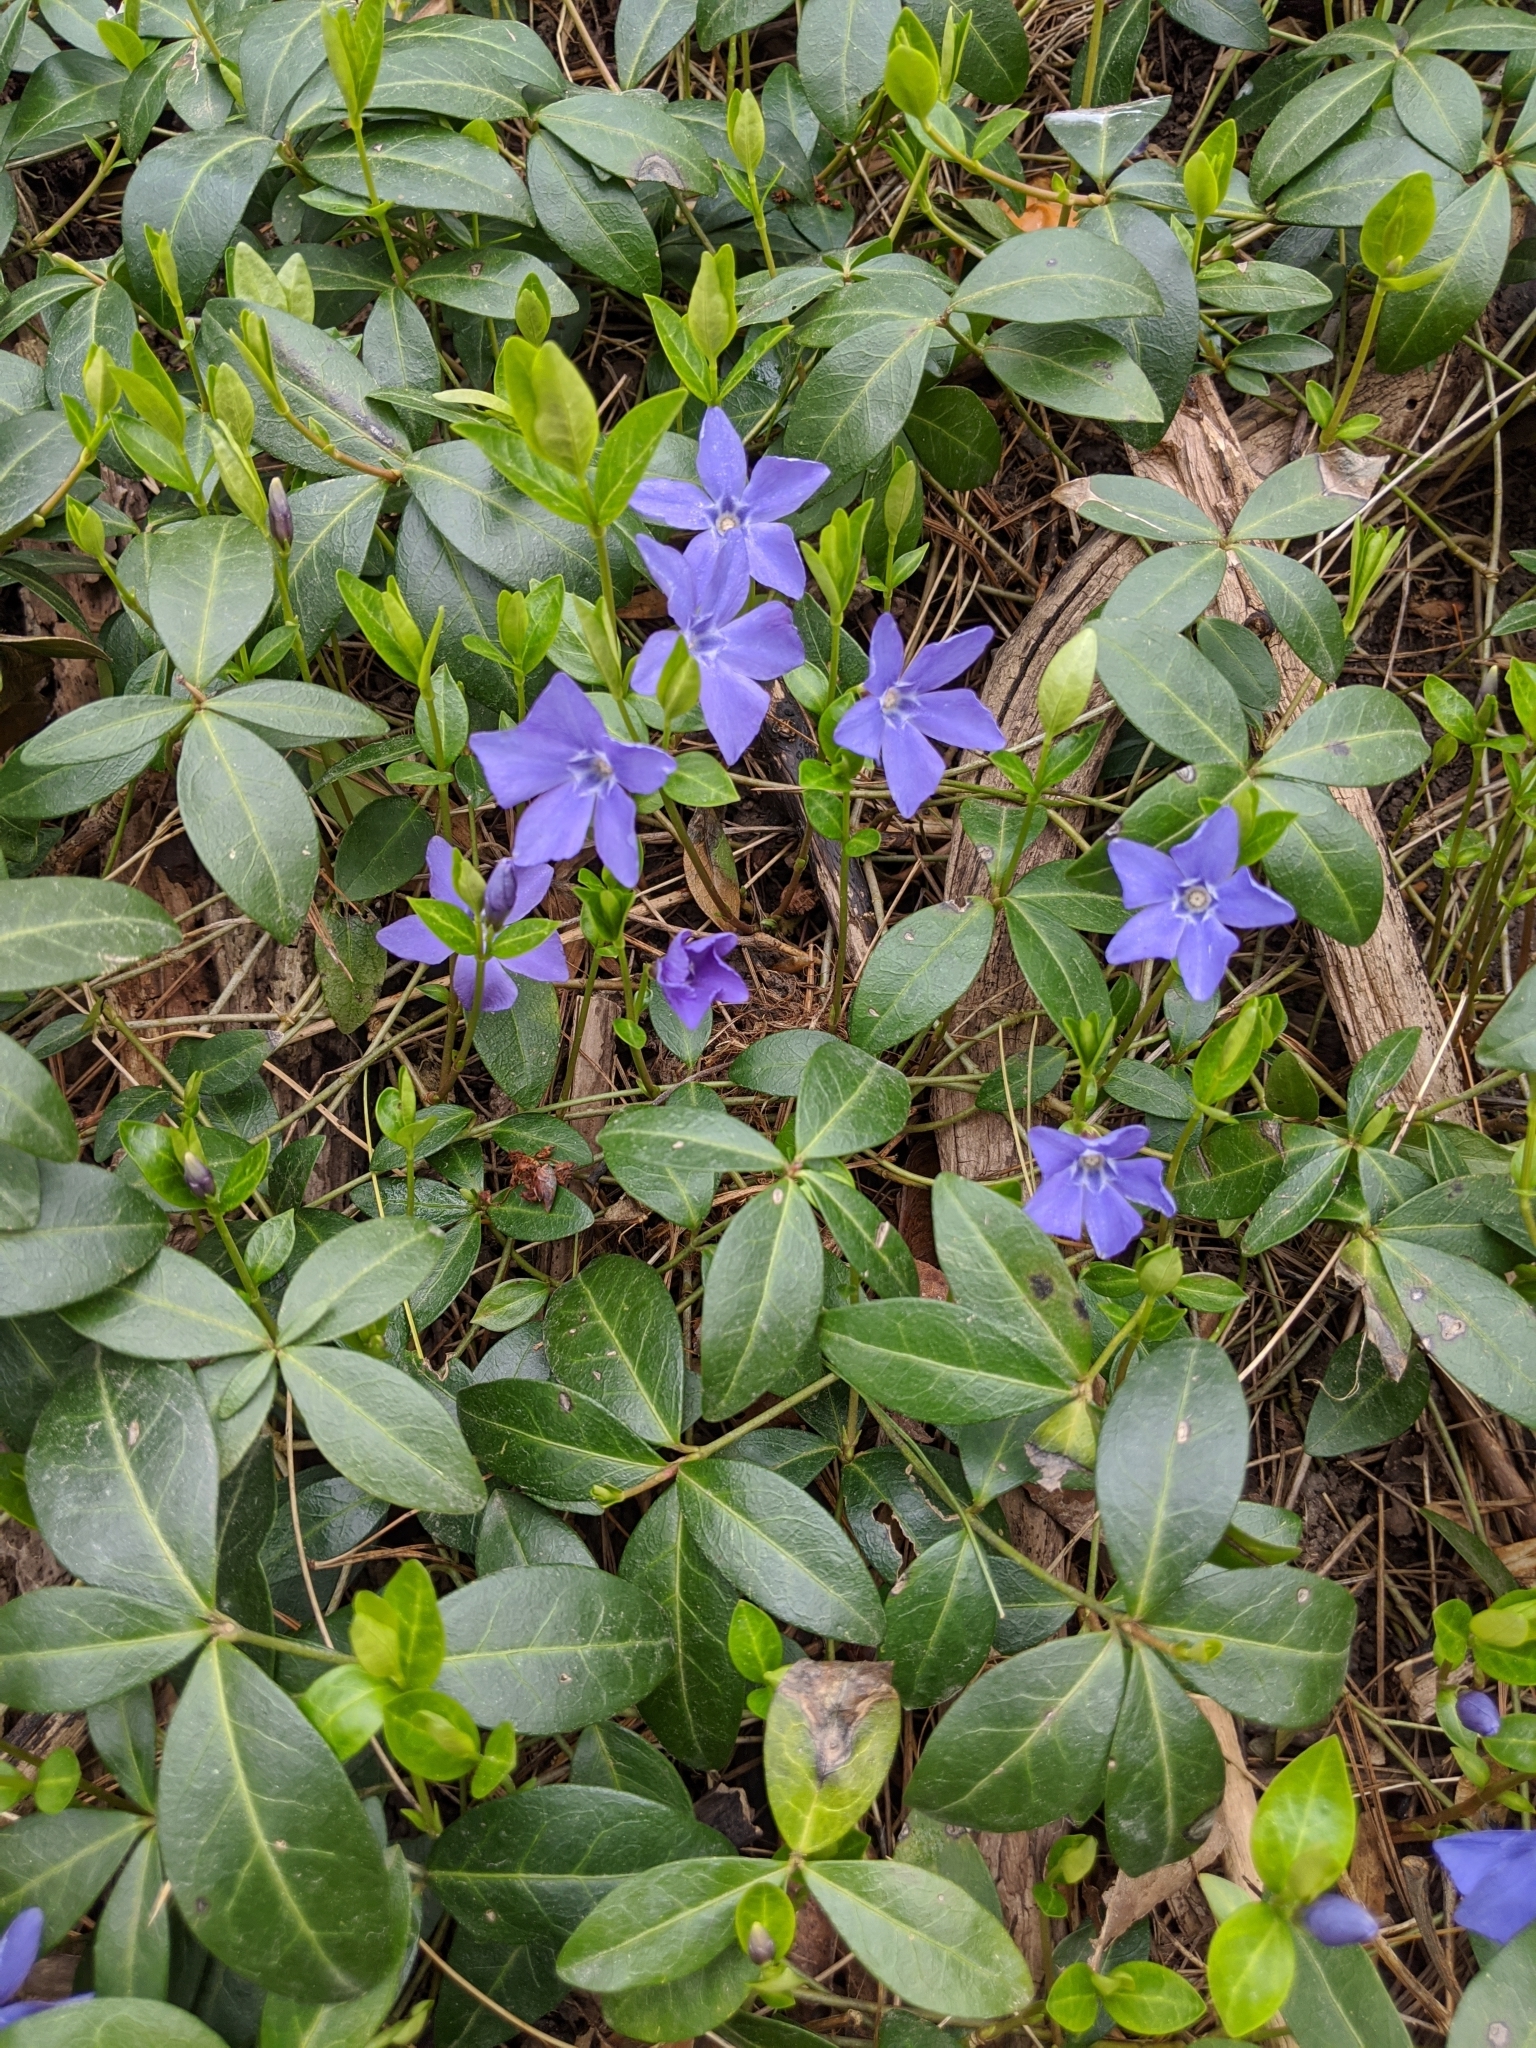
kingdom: Plantae
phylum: Tracheophyta
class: Magnoliopsida
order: Gentianales
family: Apocynaceae
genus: Vinca
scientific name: Vinca minor
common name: Lesser periwinkle
